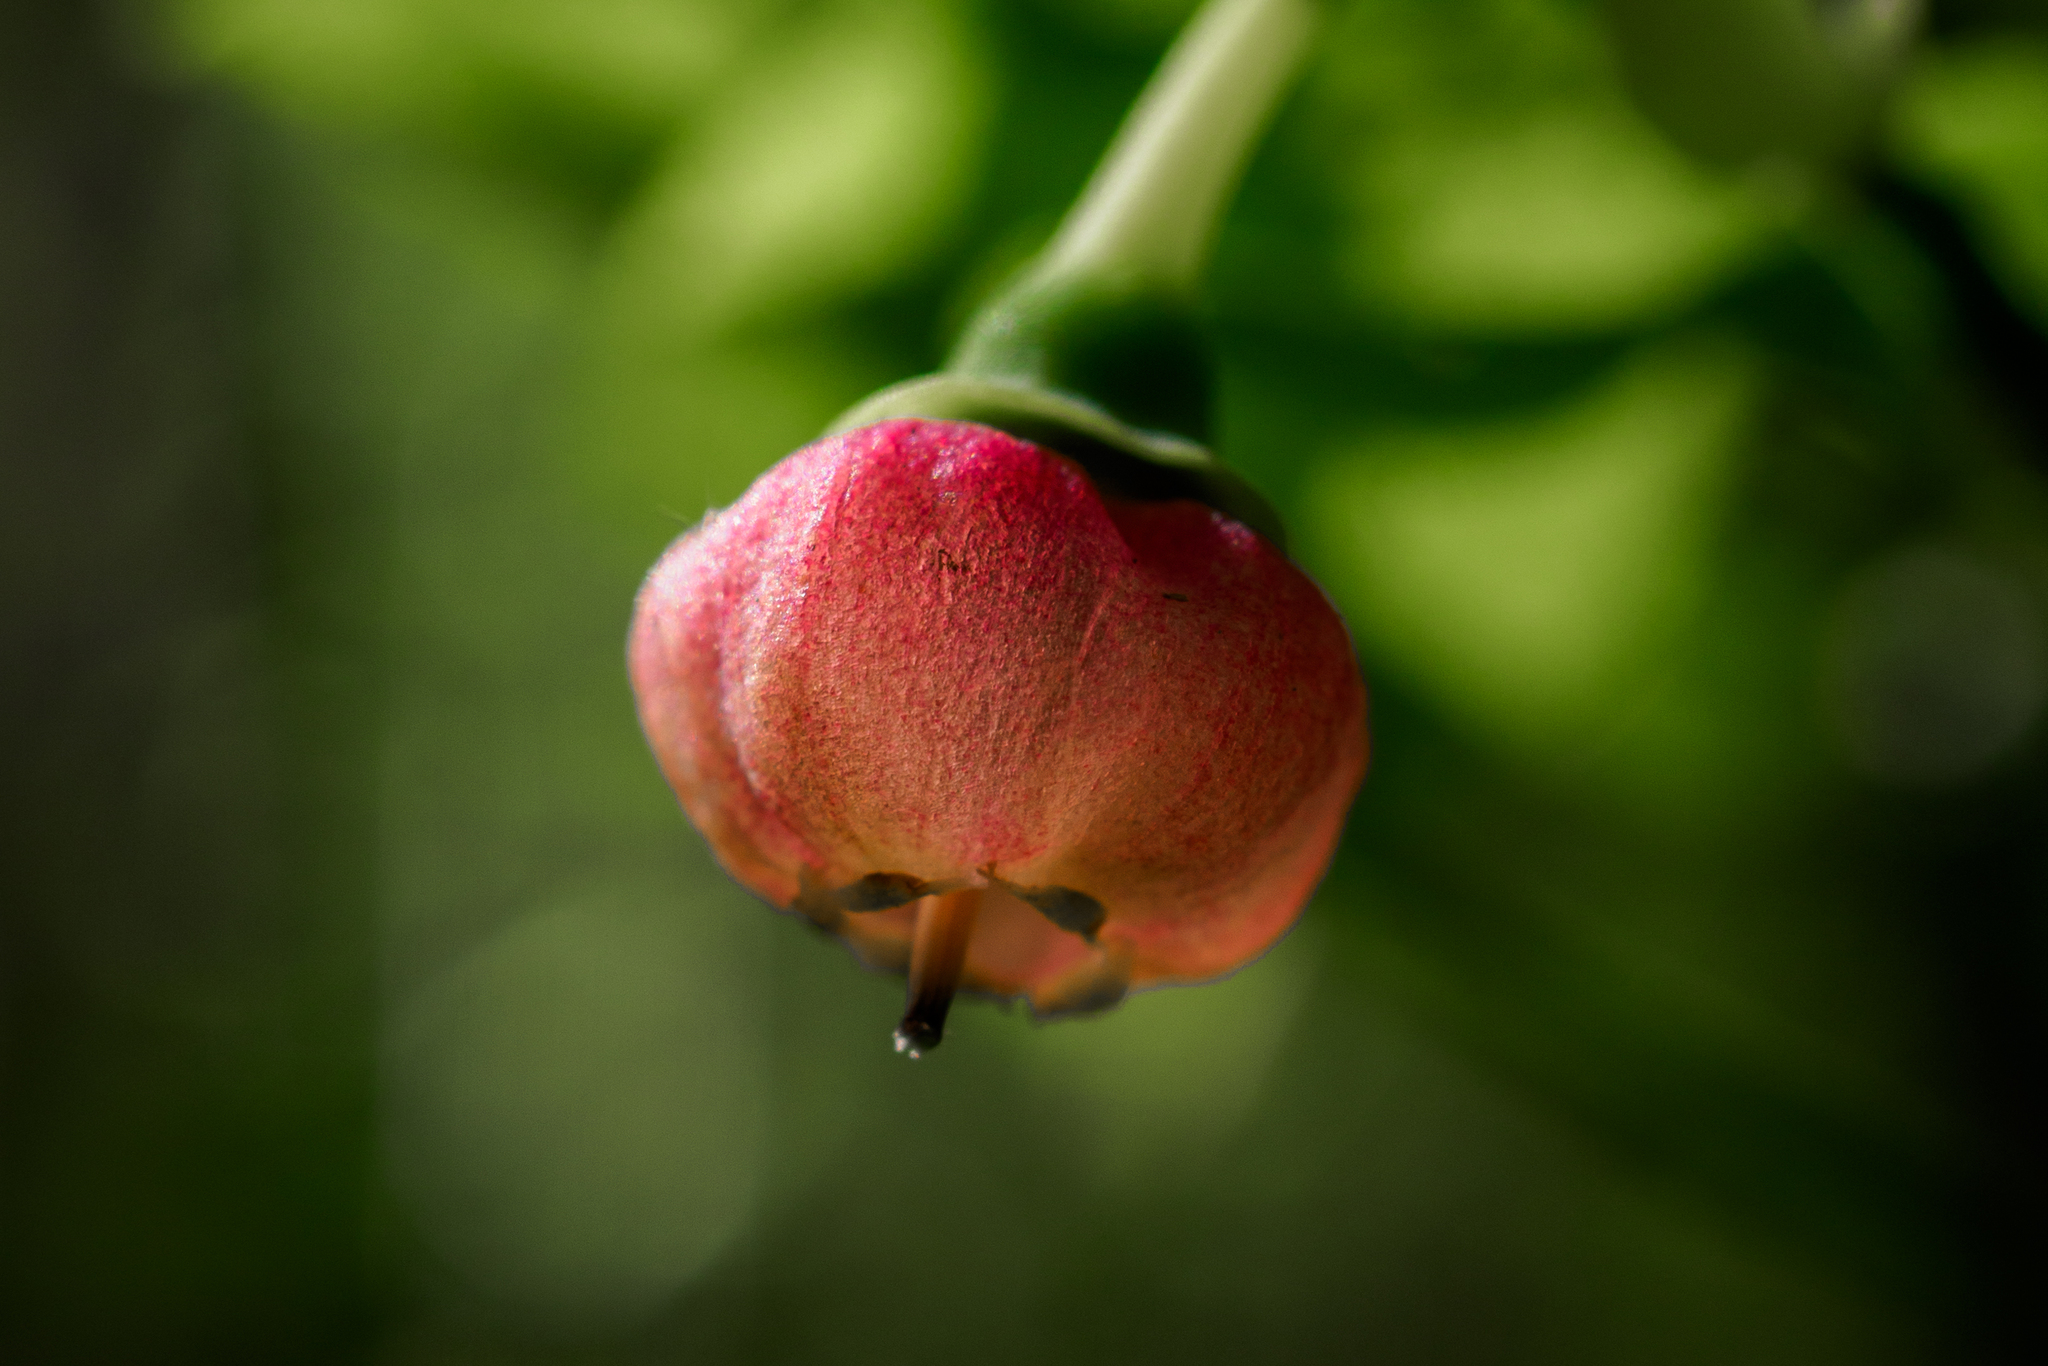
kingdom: Plantae
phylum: Tracheophyta
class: Magnoliopsida
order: Ericales
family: Ericaceae
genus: Vaccinium
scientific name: Vaccinium myrtillus
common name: Bilberry
